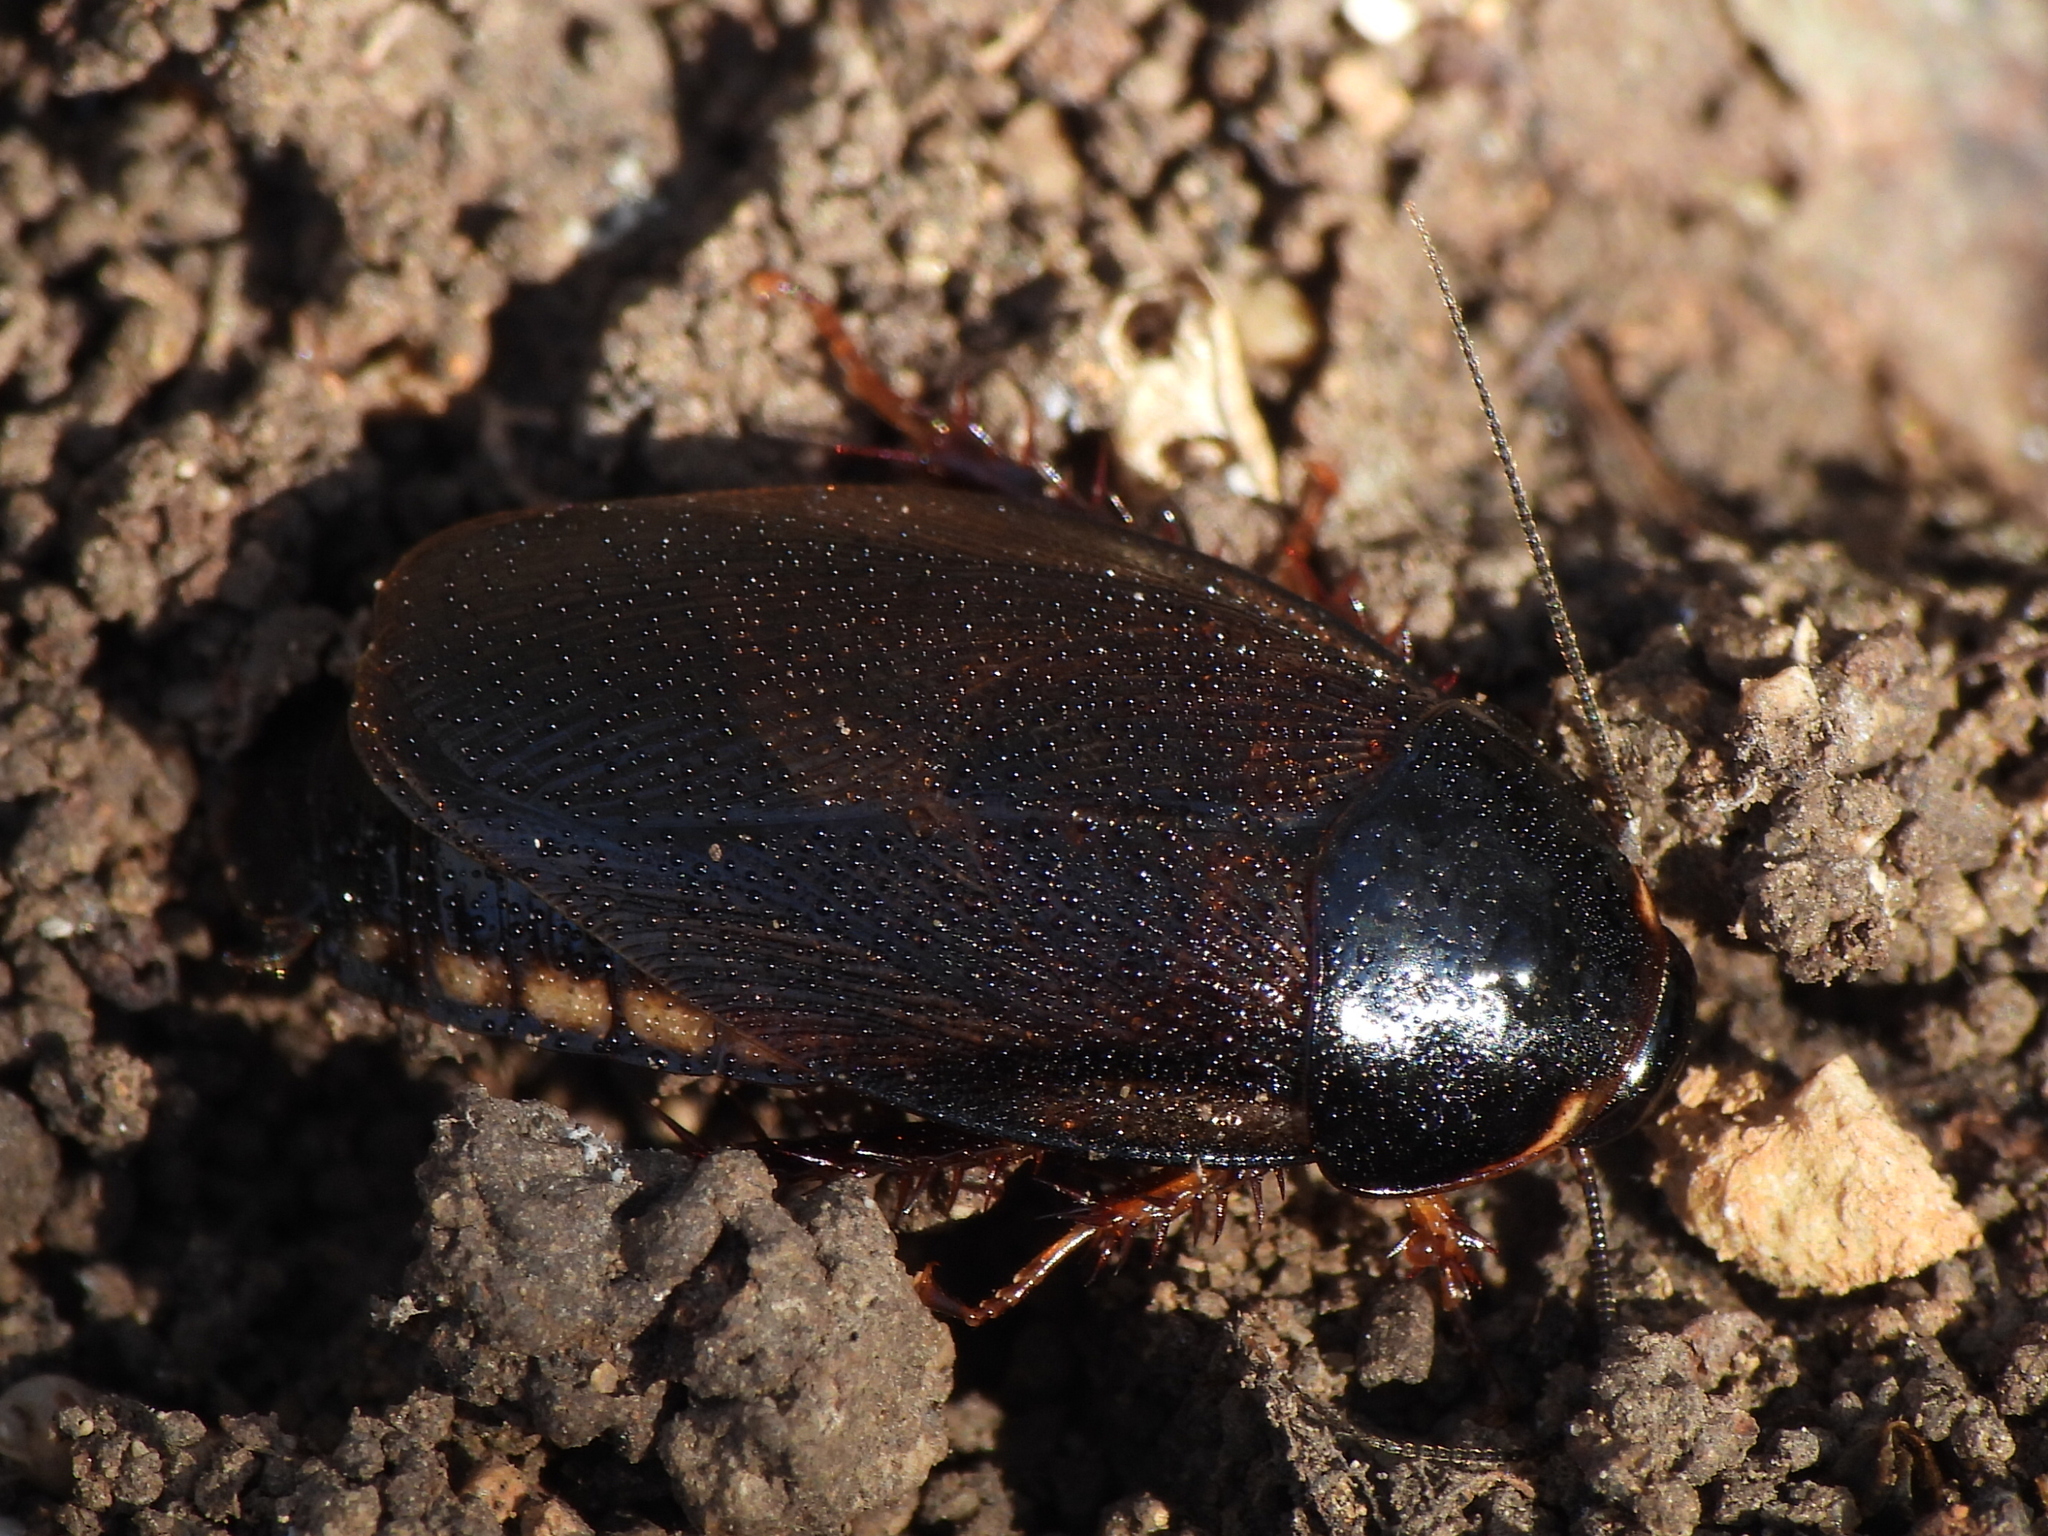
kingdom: Animalia
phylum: Arthropoda
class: Insecta
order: Blattodea
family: Blaberidae
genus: Pycnoscelus
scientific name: Pycnoscelus surinamensis
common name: Surinam cockroach
